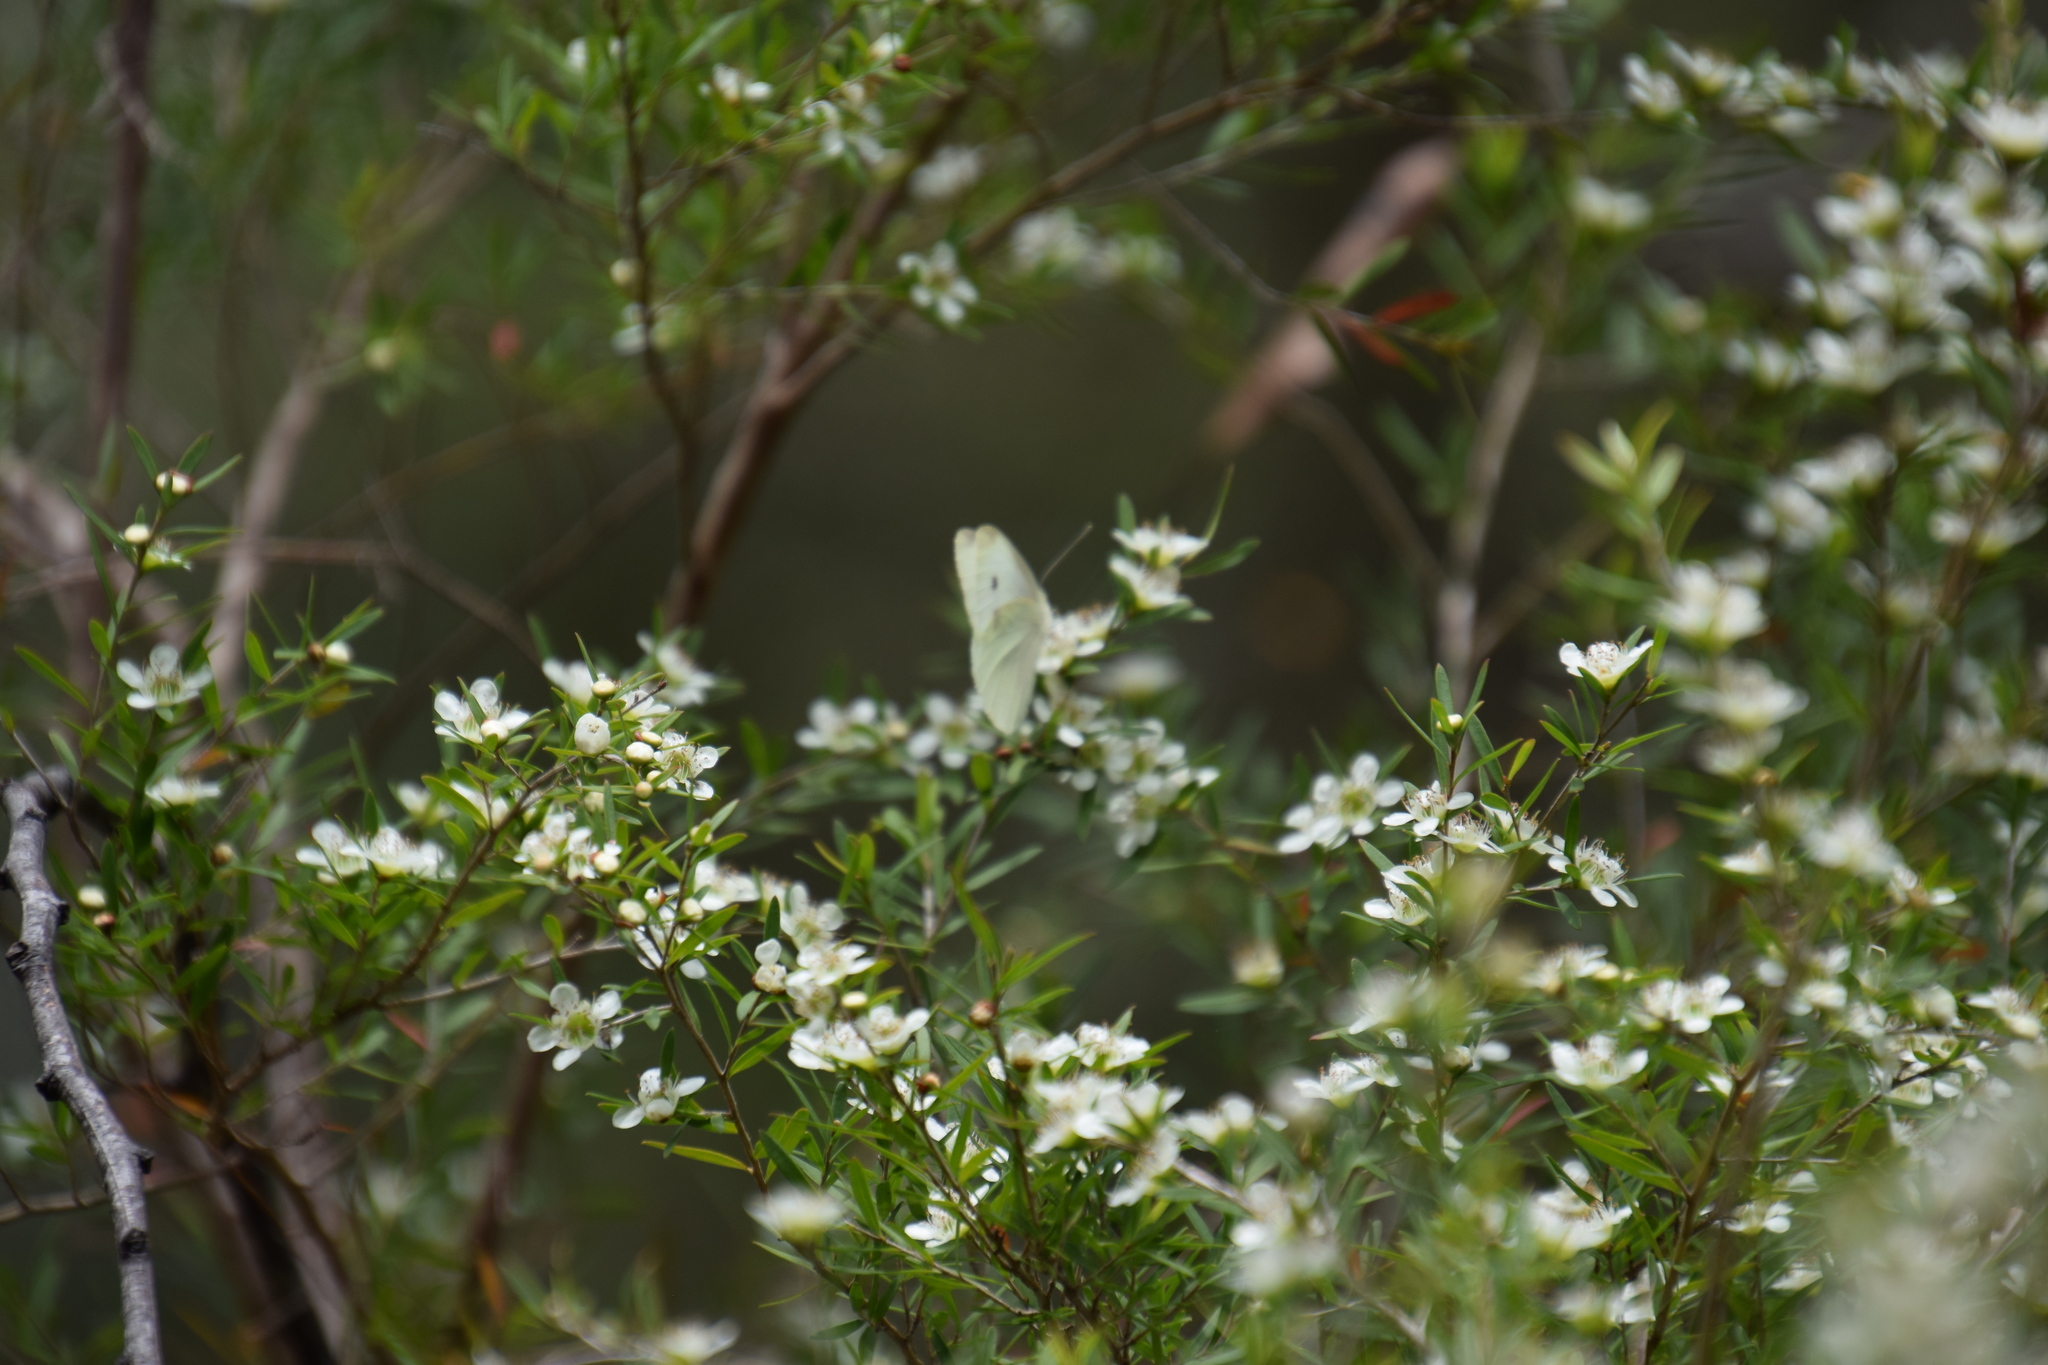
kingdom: Animalia
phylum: Arthropoda
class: Insecta
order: Lepidoptera
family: Pieridae
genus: Pieris
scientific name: Pieris rapae
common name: Small white
